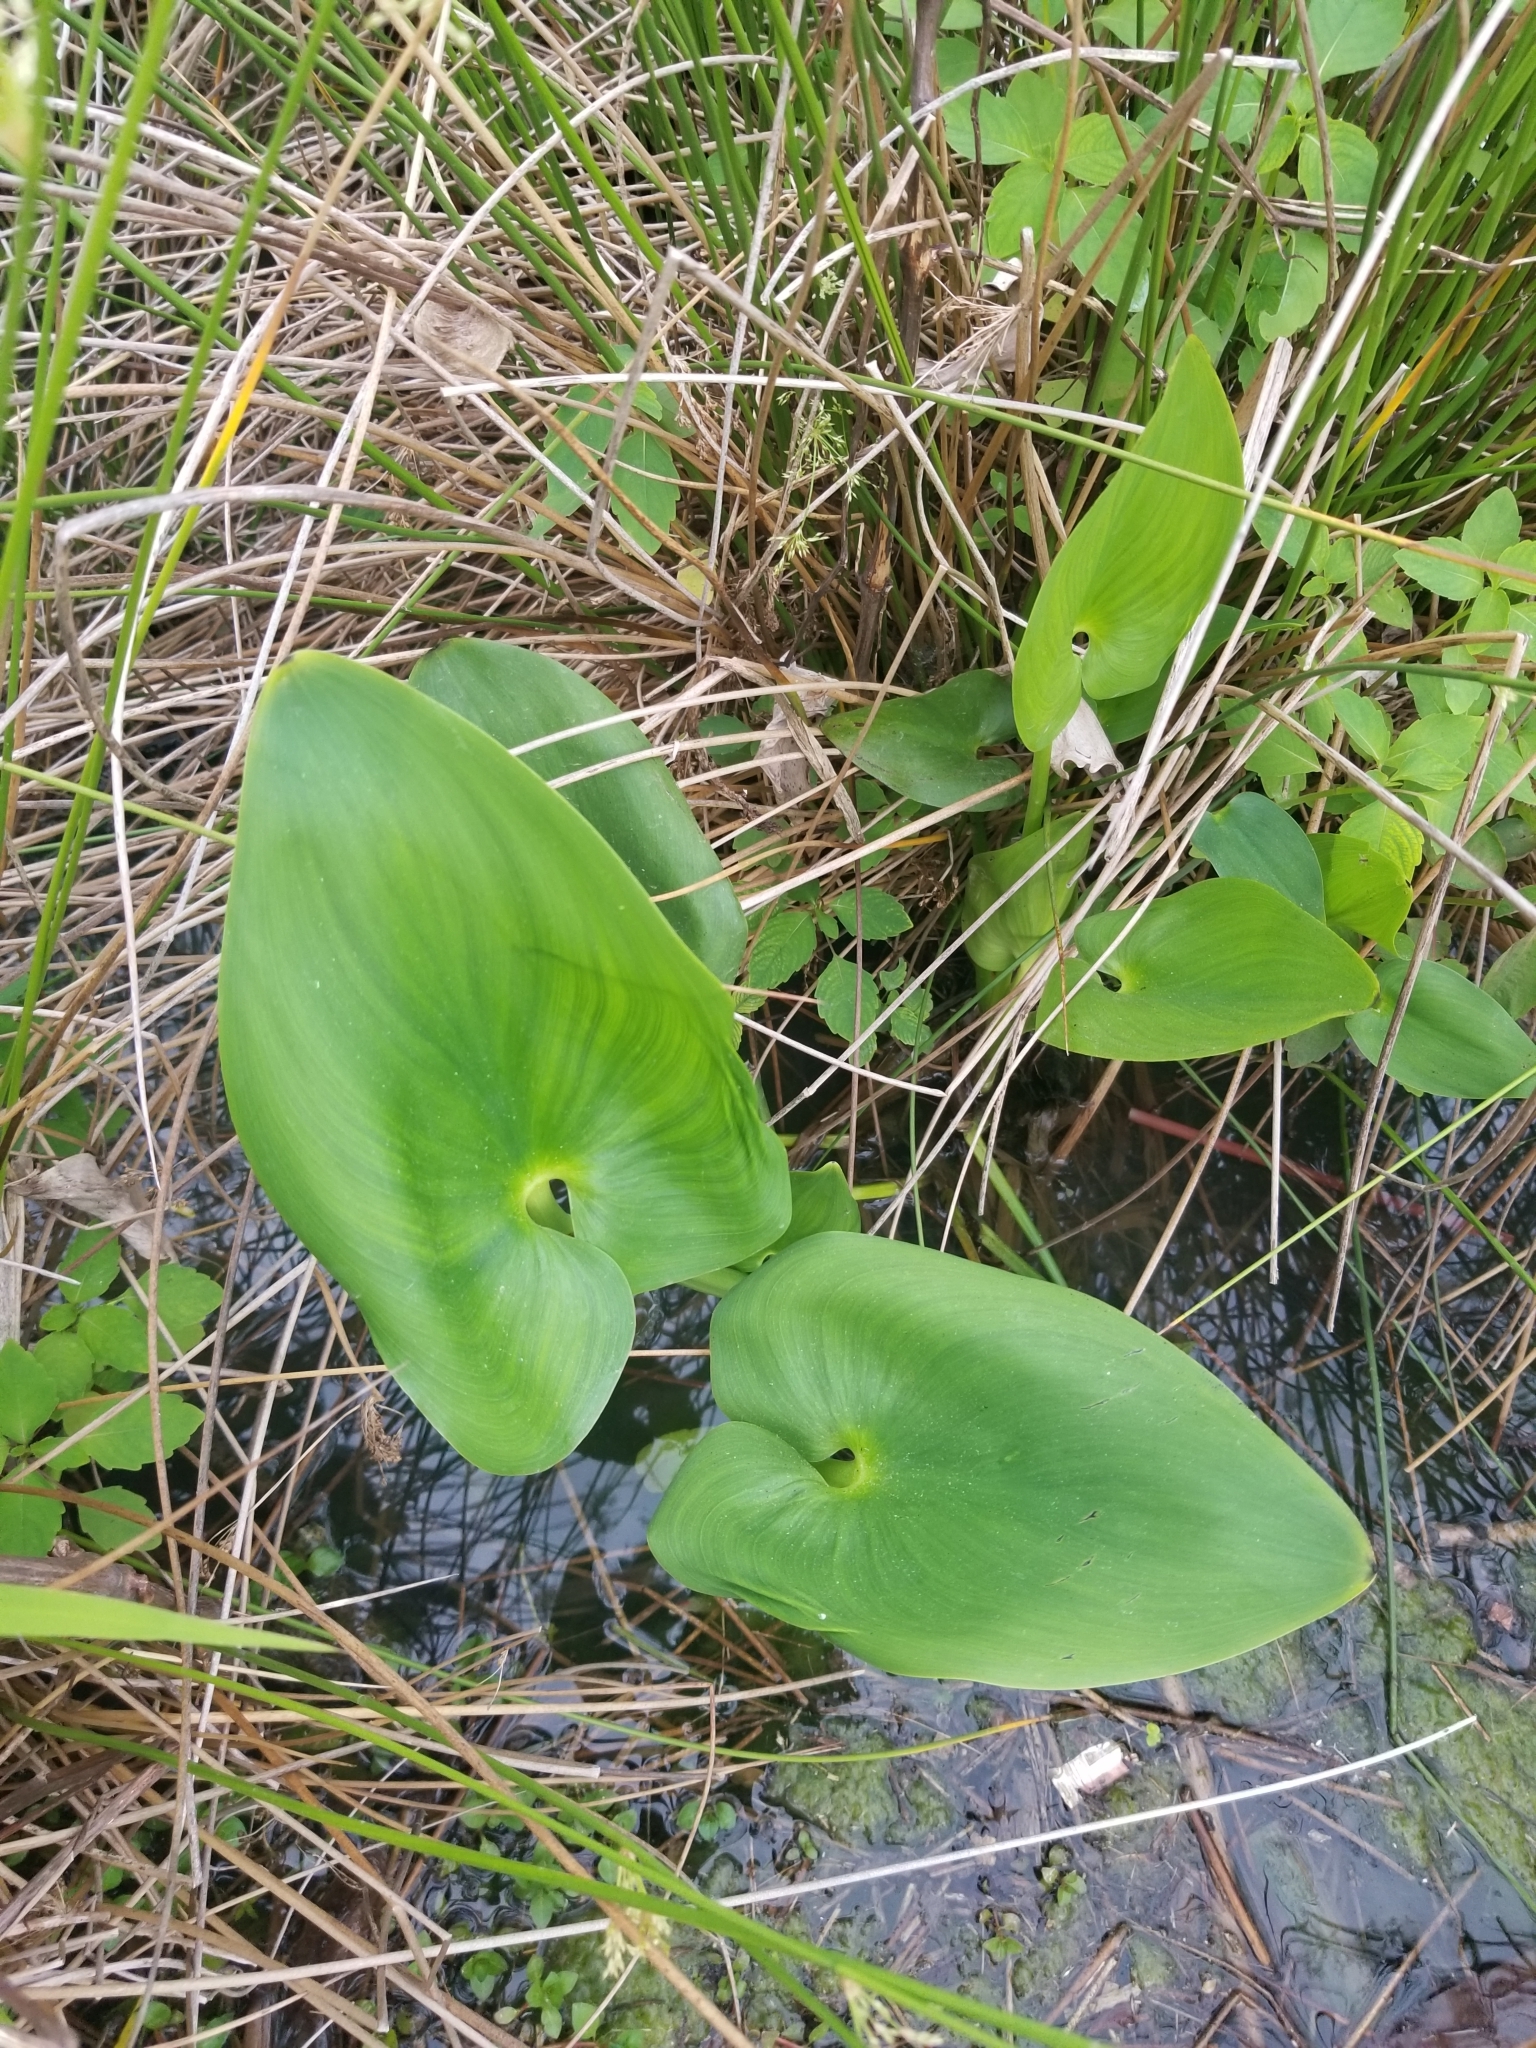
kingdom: Plantae
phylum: Tracheophyta
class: Liliopsida
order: Commelinales
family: Pontederiaceae
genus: Pontederia
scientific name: Pontederia cordata
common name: Pickerelweed
